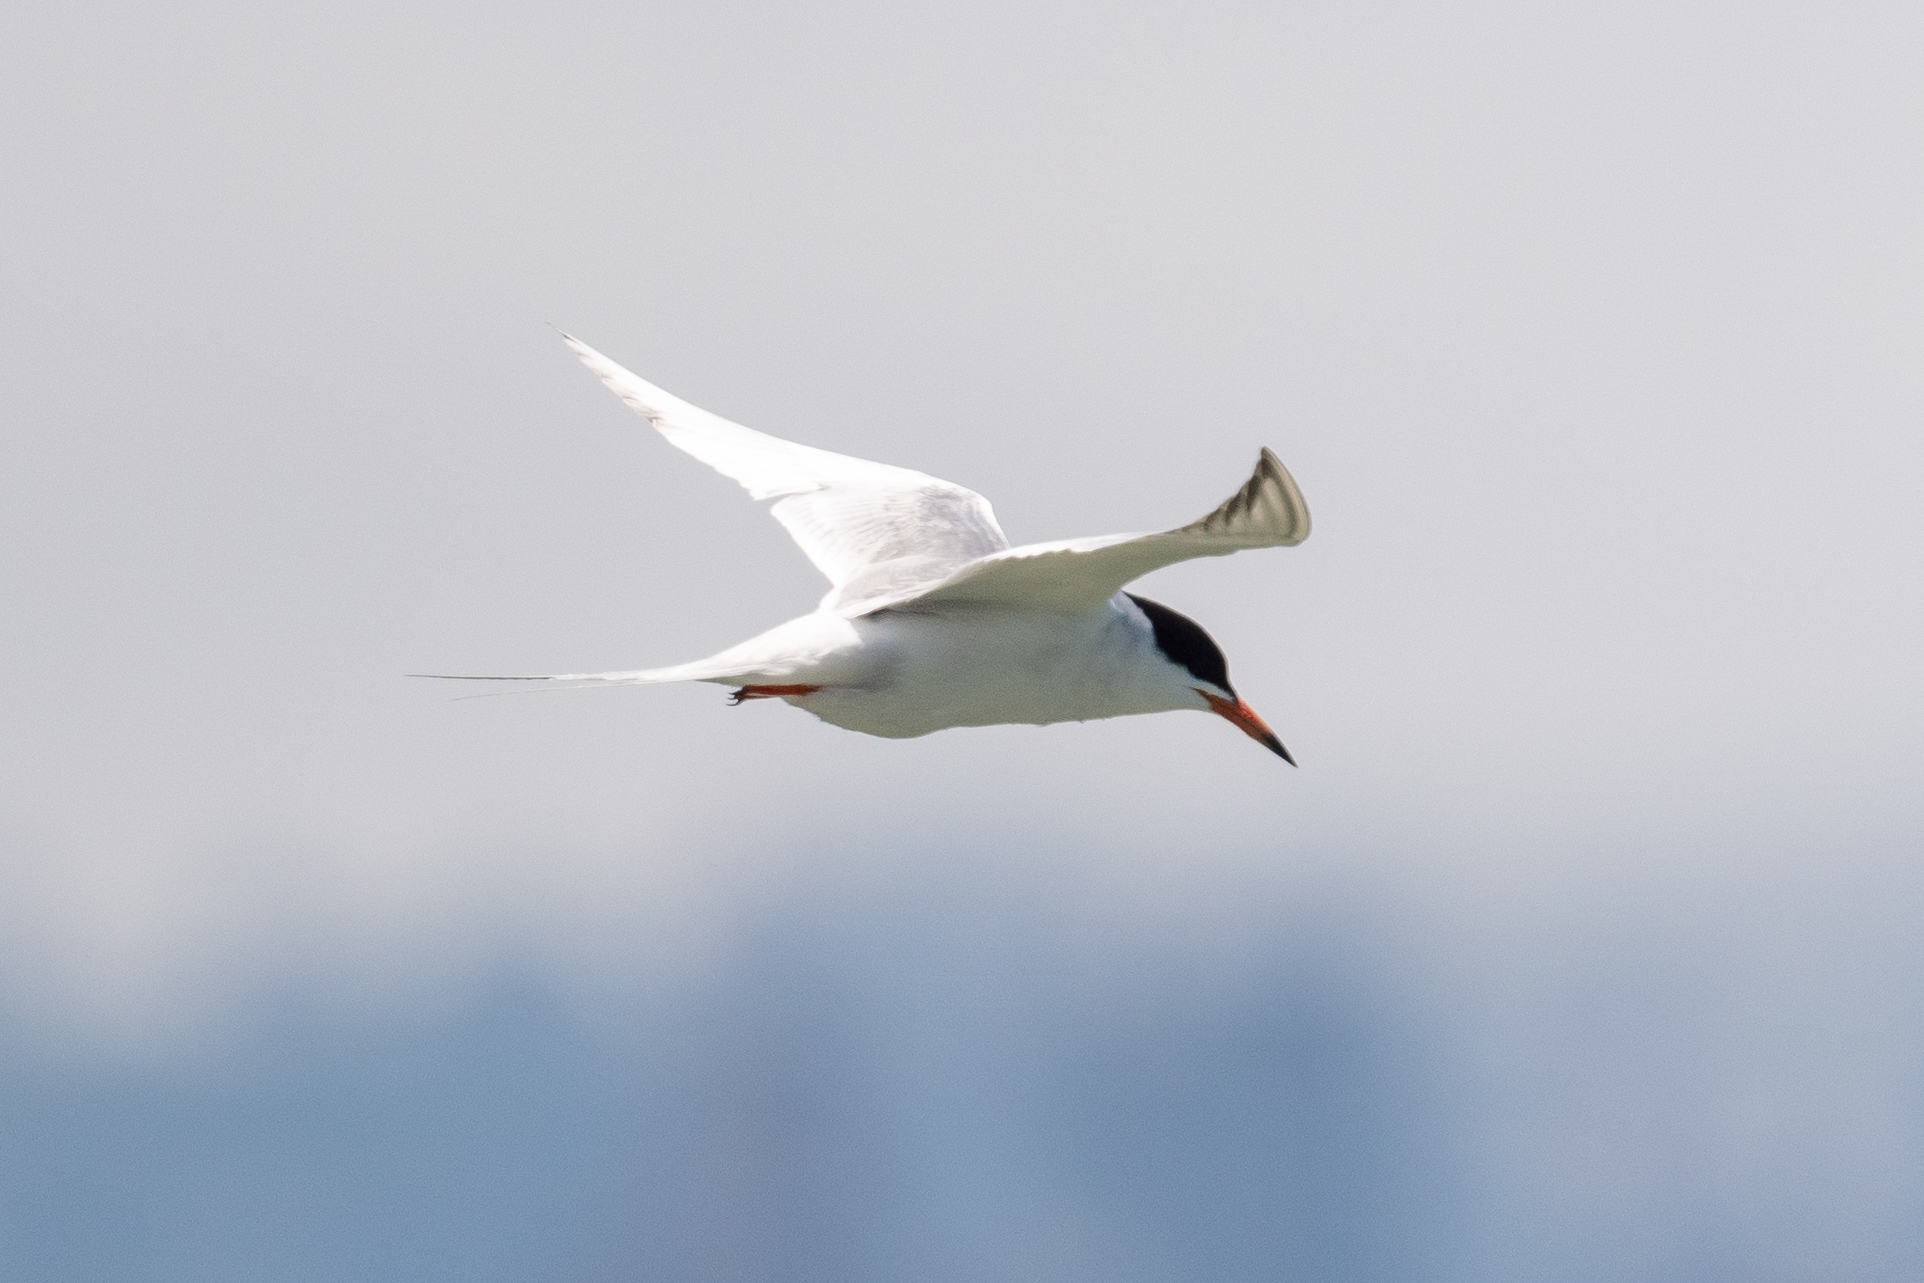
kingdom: Animalia
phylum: Chordata
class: Aves
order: Charadriiformes
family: Laridae
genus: Sterna
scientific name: Sterna forsteri
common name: Forster's tern
